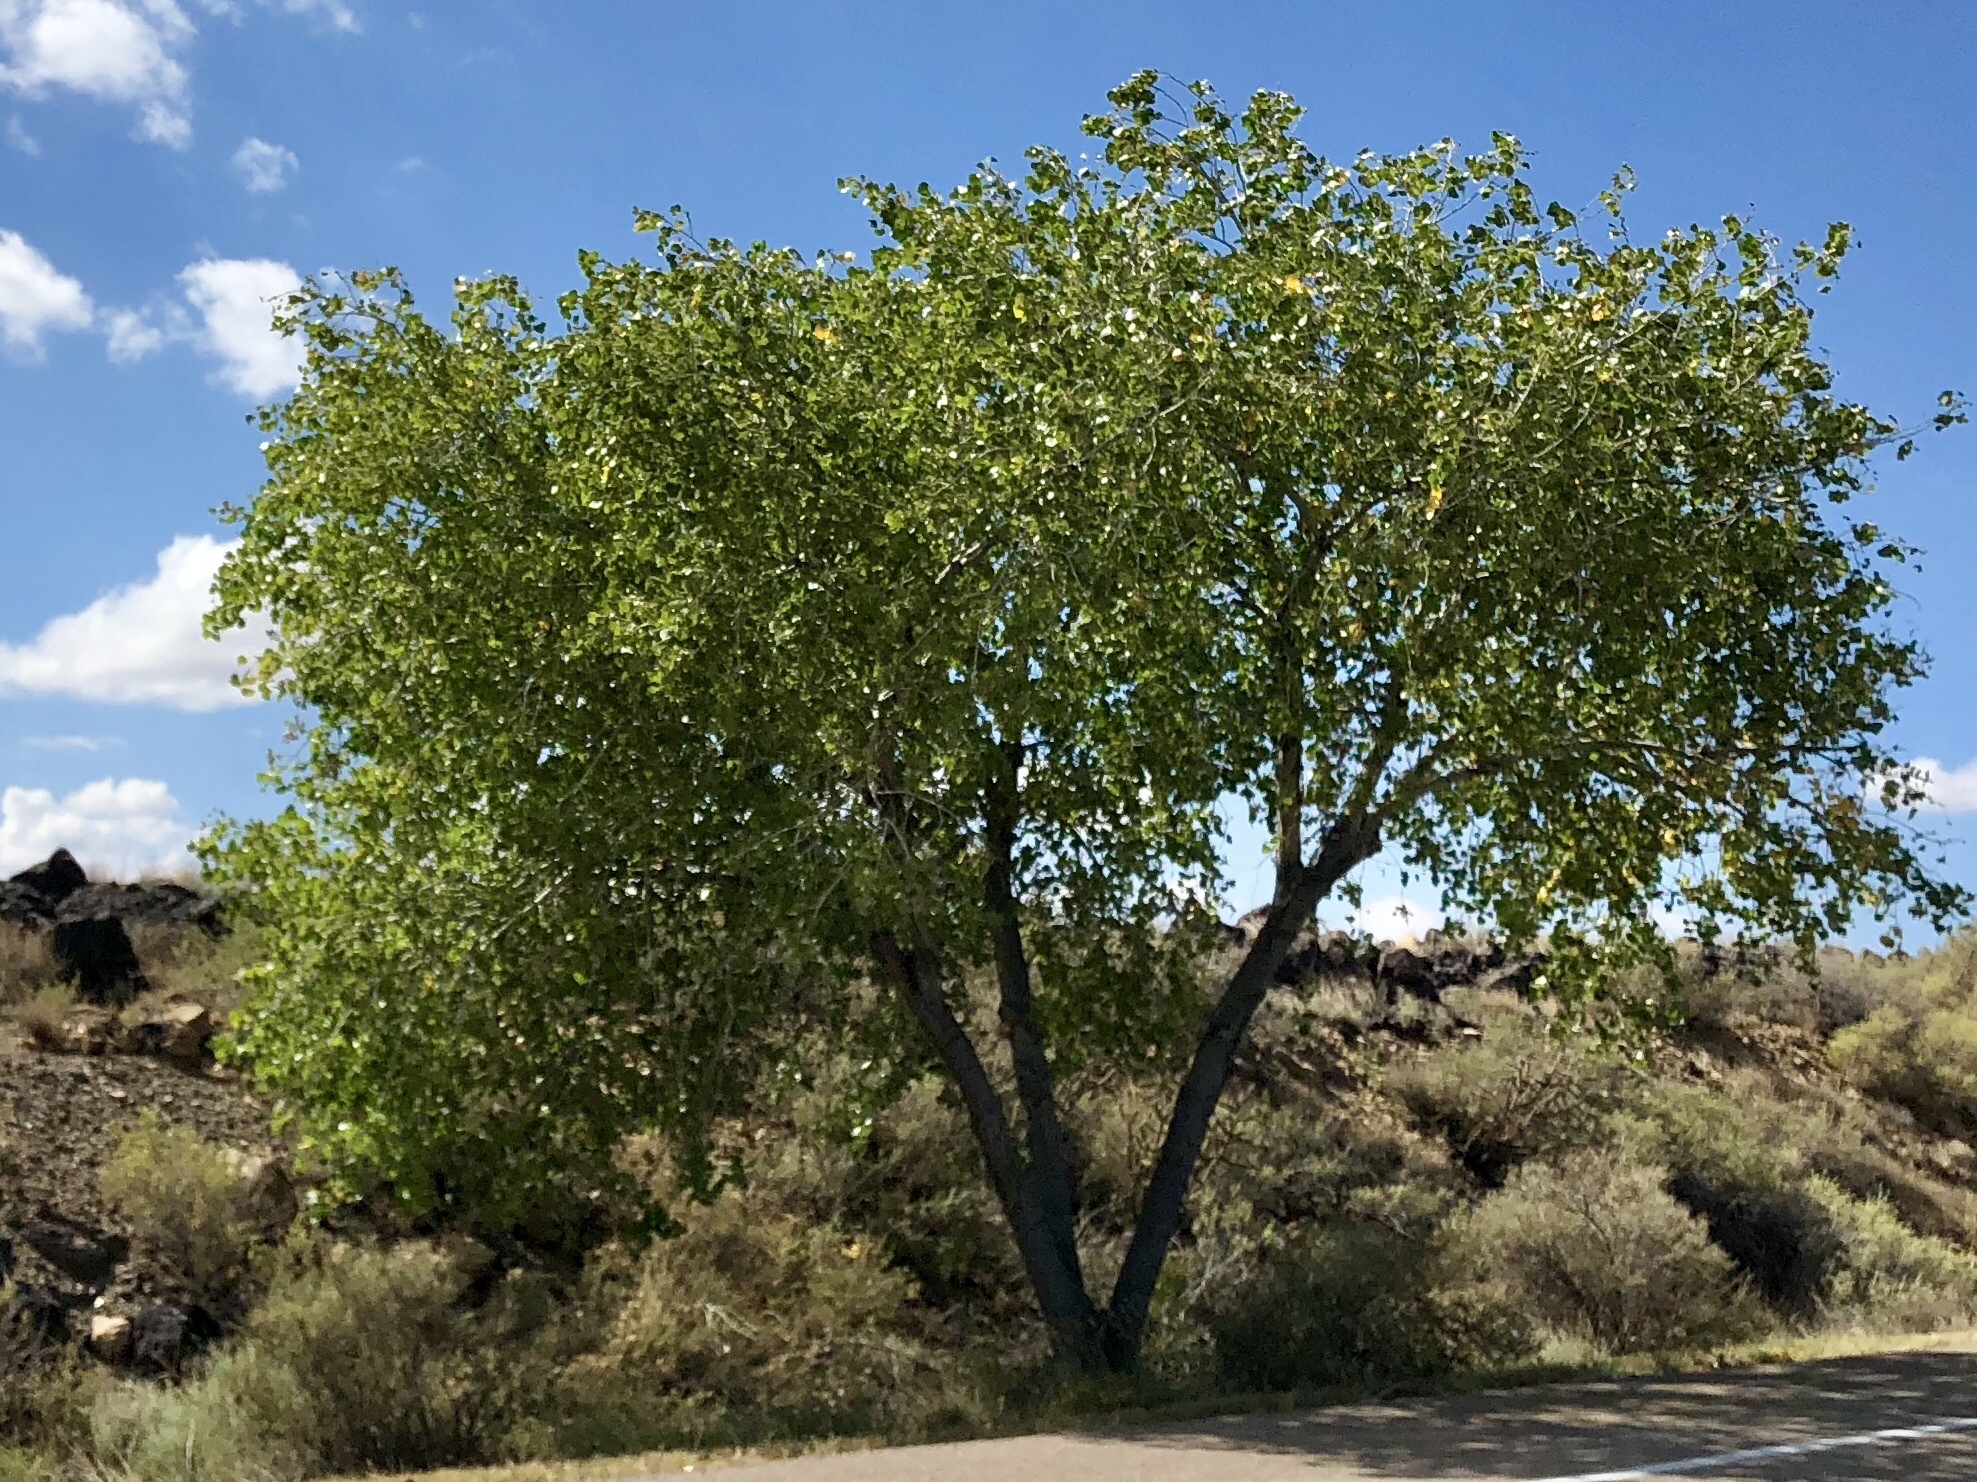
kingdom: Plantae
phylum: Tracheophyta
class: Magnoliopsida
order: Malpighiales
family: Salicaceae
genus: Populus
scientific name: Populus fremontii
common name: Fremont's cottonwood
